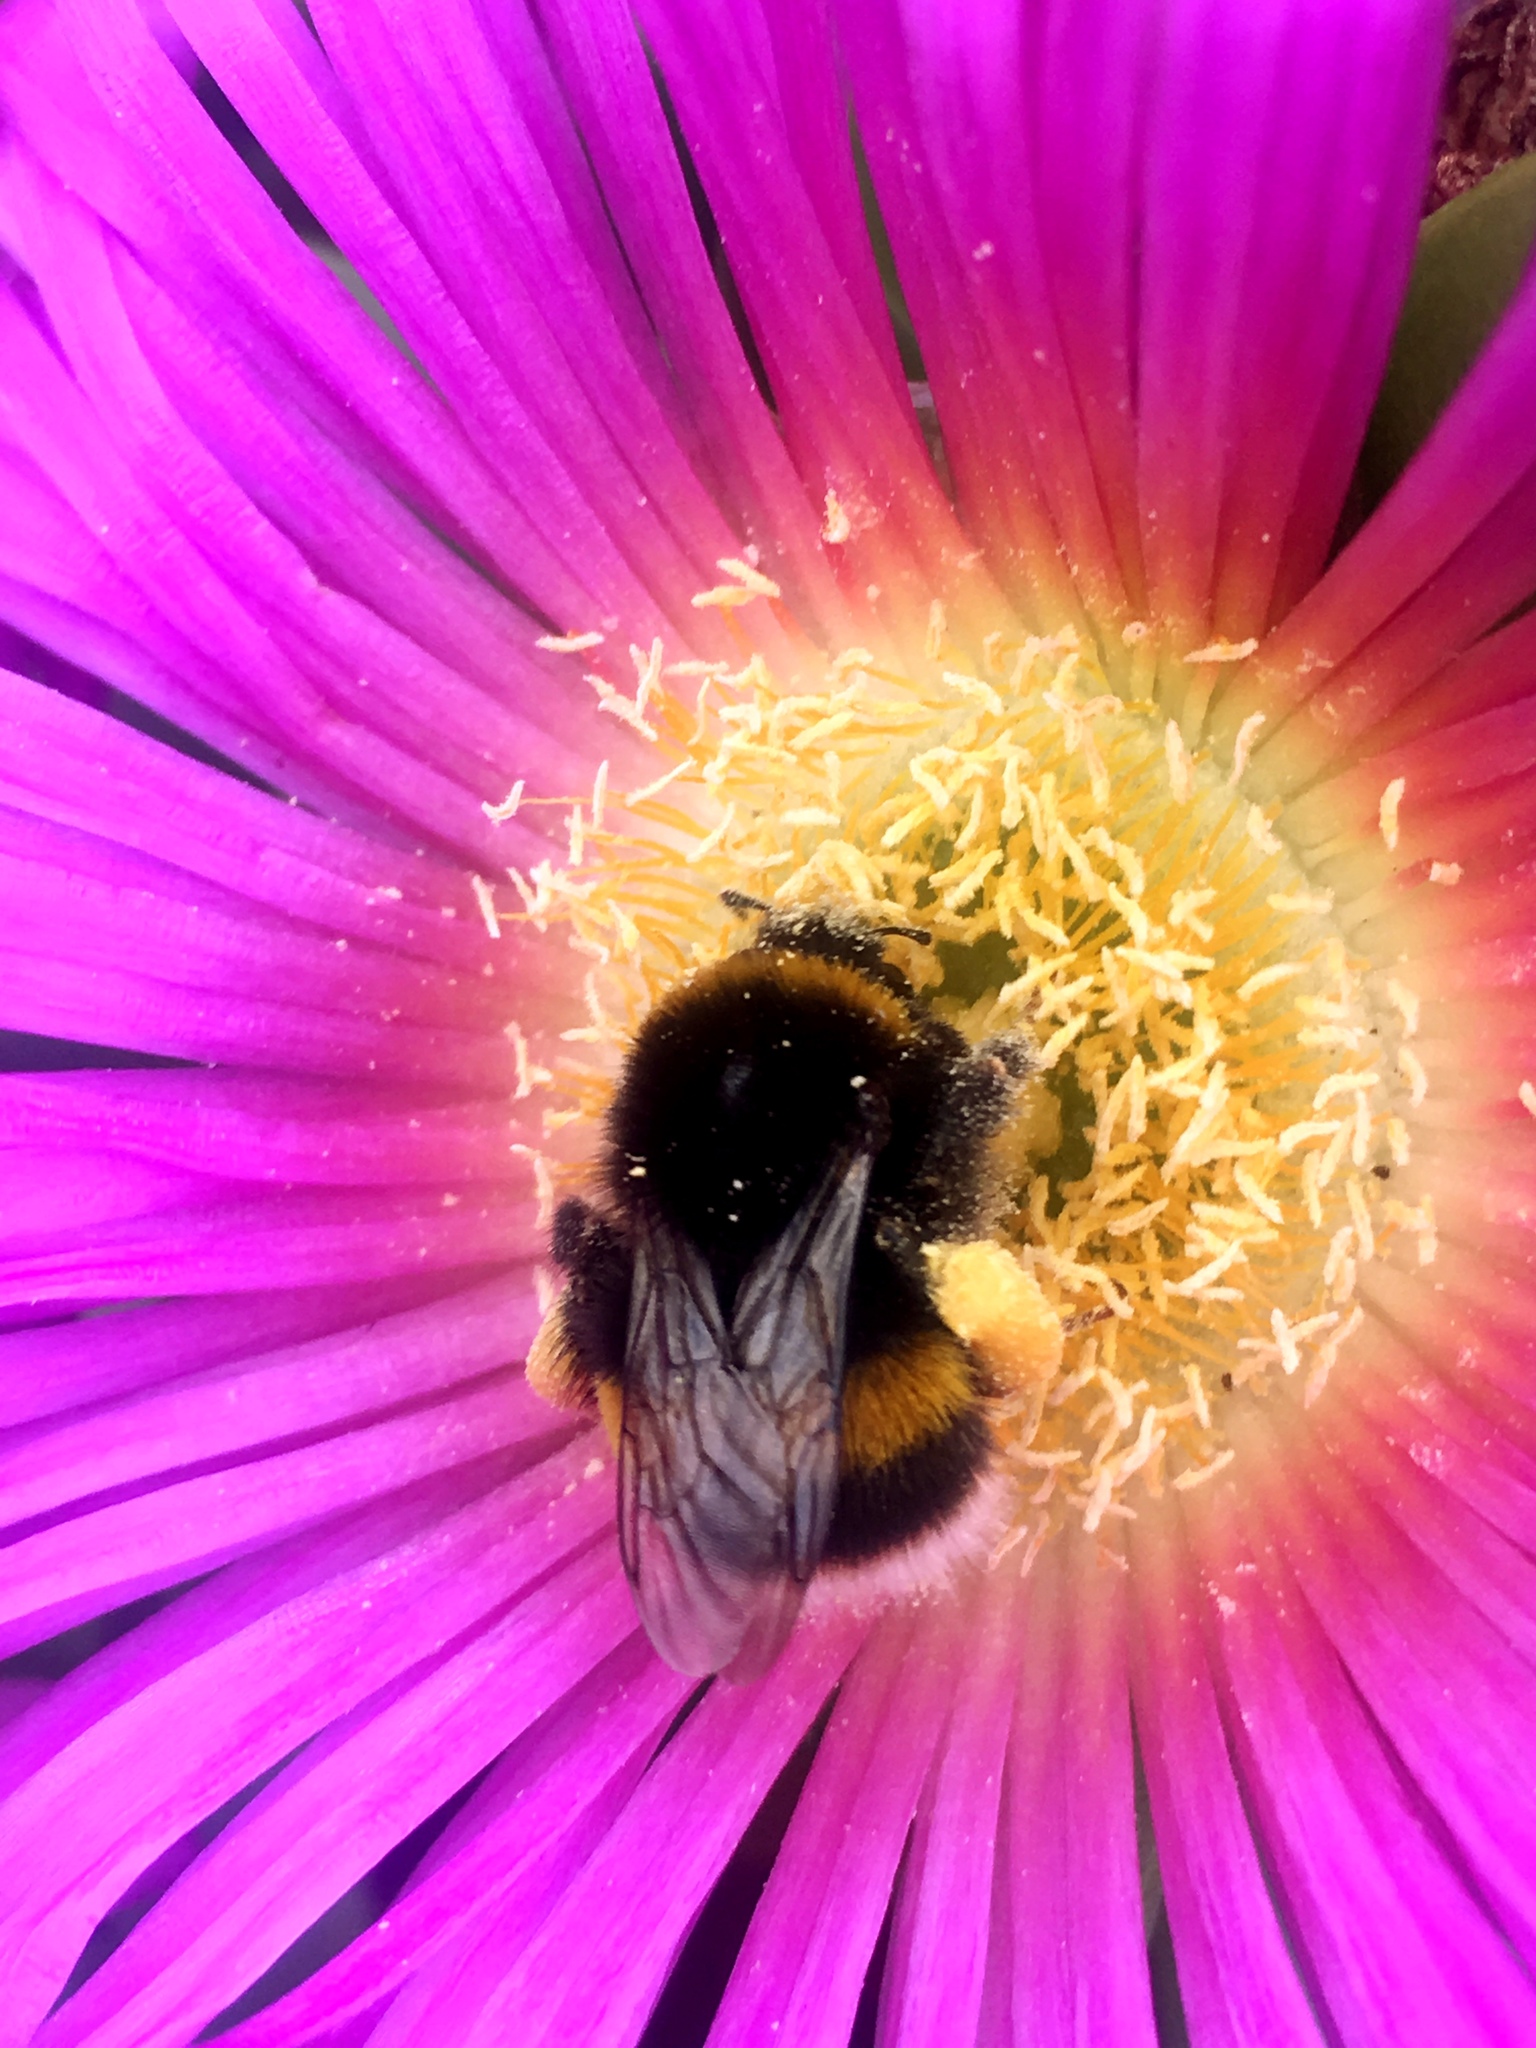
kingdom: Animalia
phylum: Arthropoda
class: Insecta
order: Hymenoptera
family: Apidae
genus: Bombus
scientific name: Bombus terrestris
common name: Buff-tailed bumblebee
